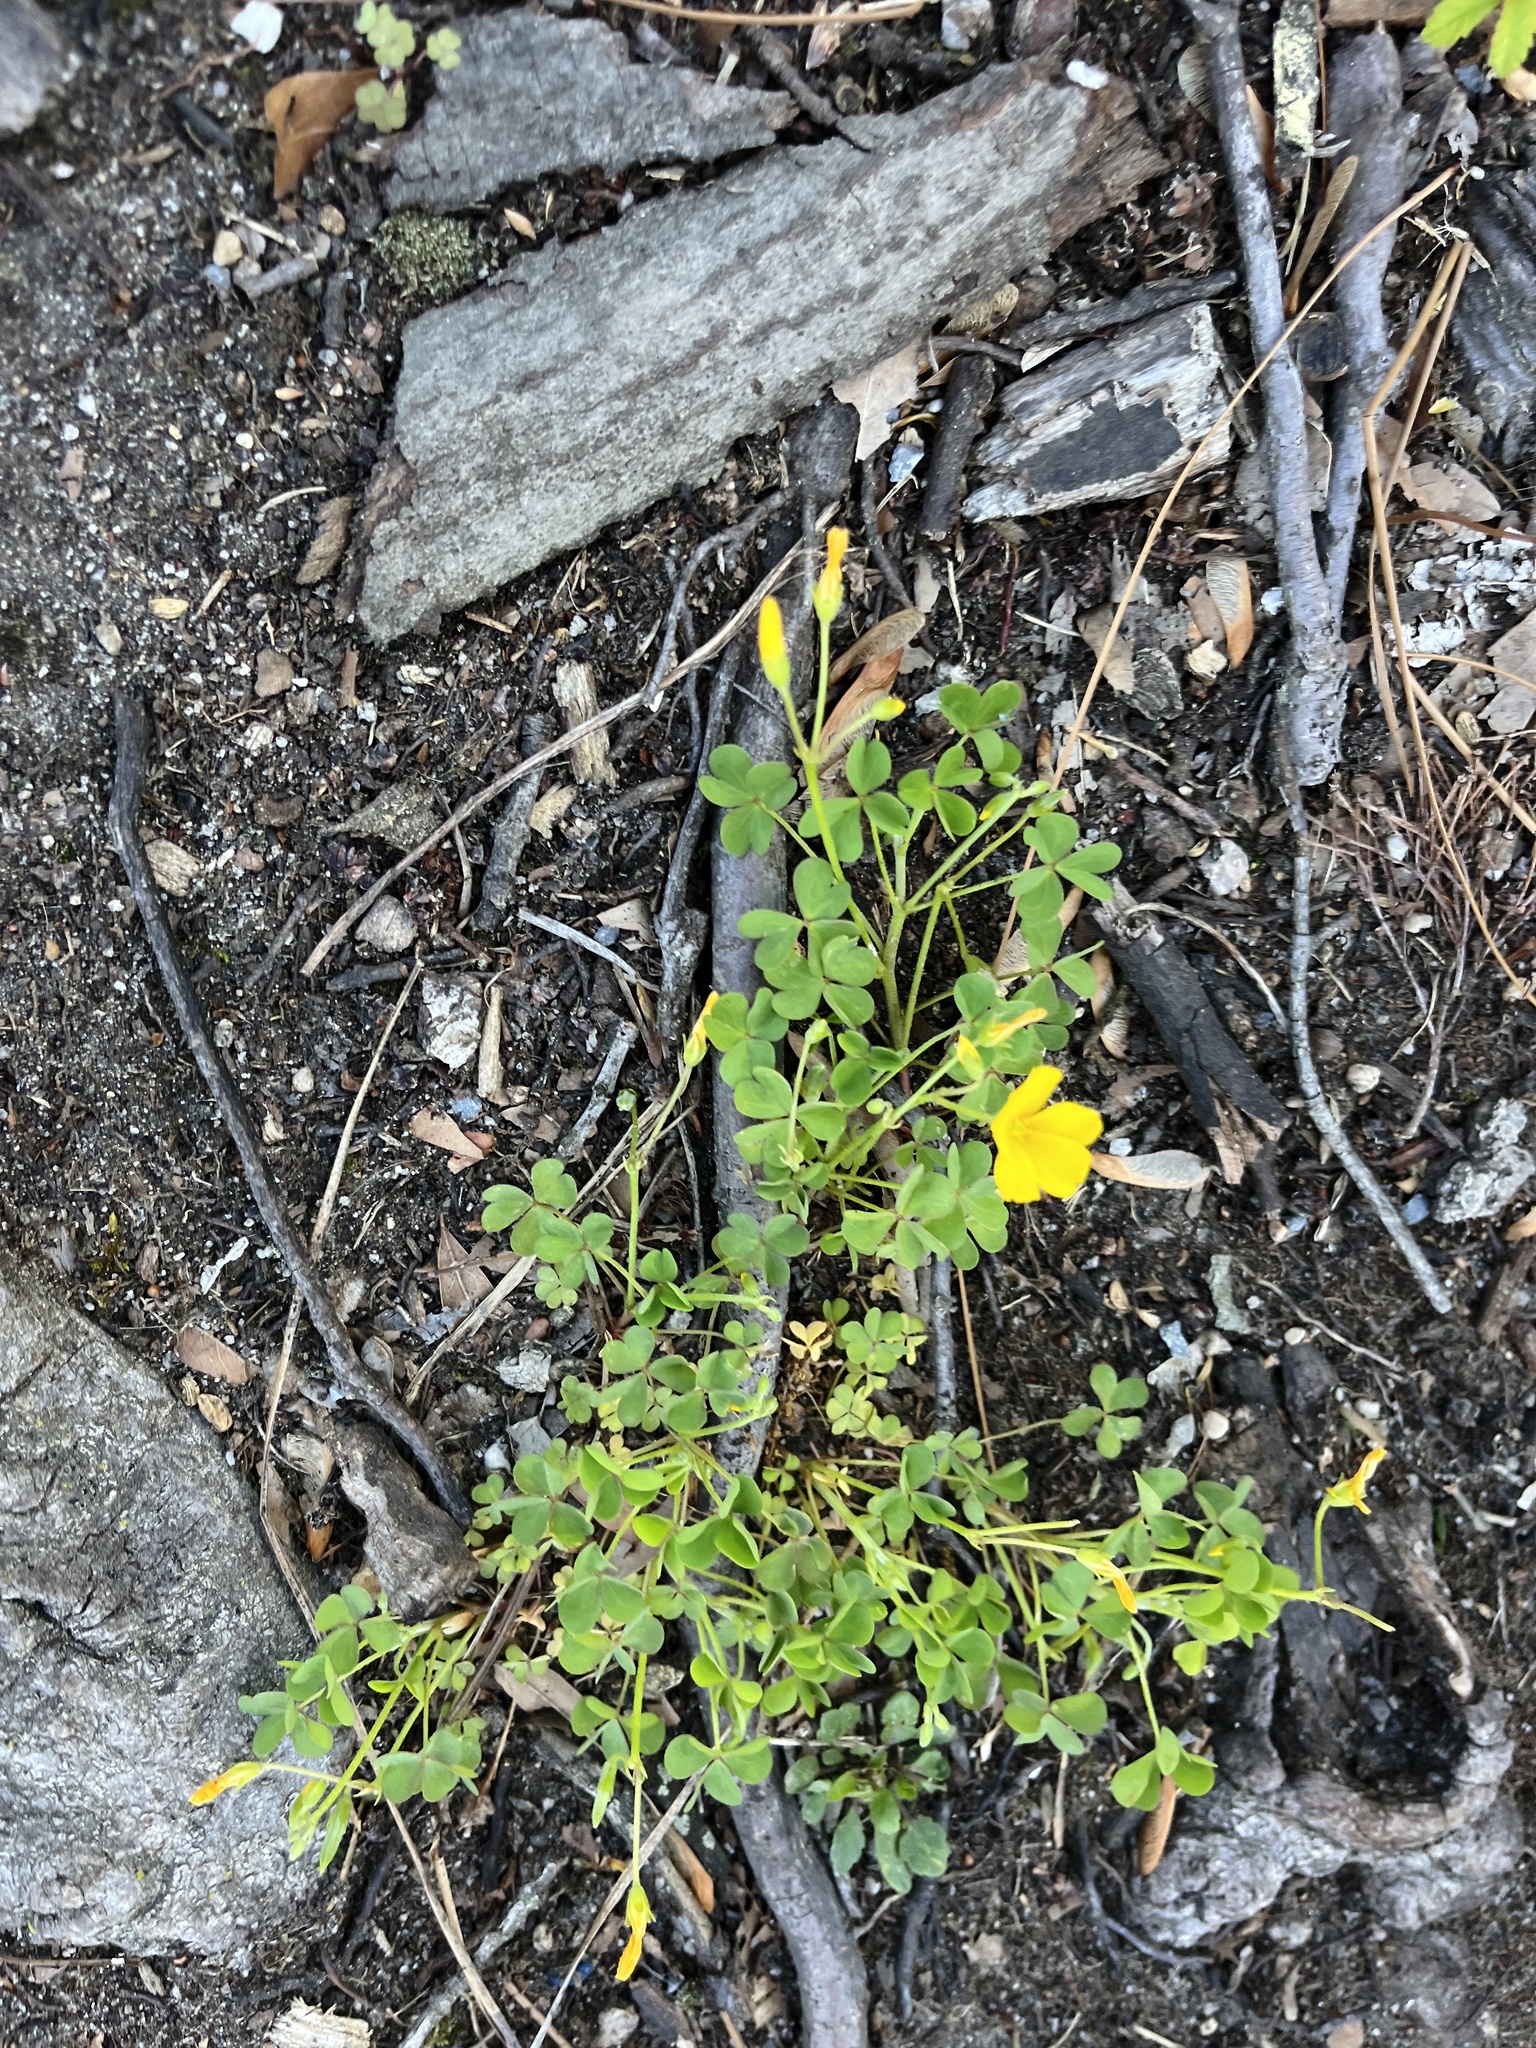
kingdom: Plantae
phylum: Tracheophyta
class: Magnoliopsida
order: Oxalidales
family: Oxalidaceae
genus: Oxalis
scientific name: Oxalis dillenii
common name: Sussex yellow-sorrel
